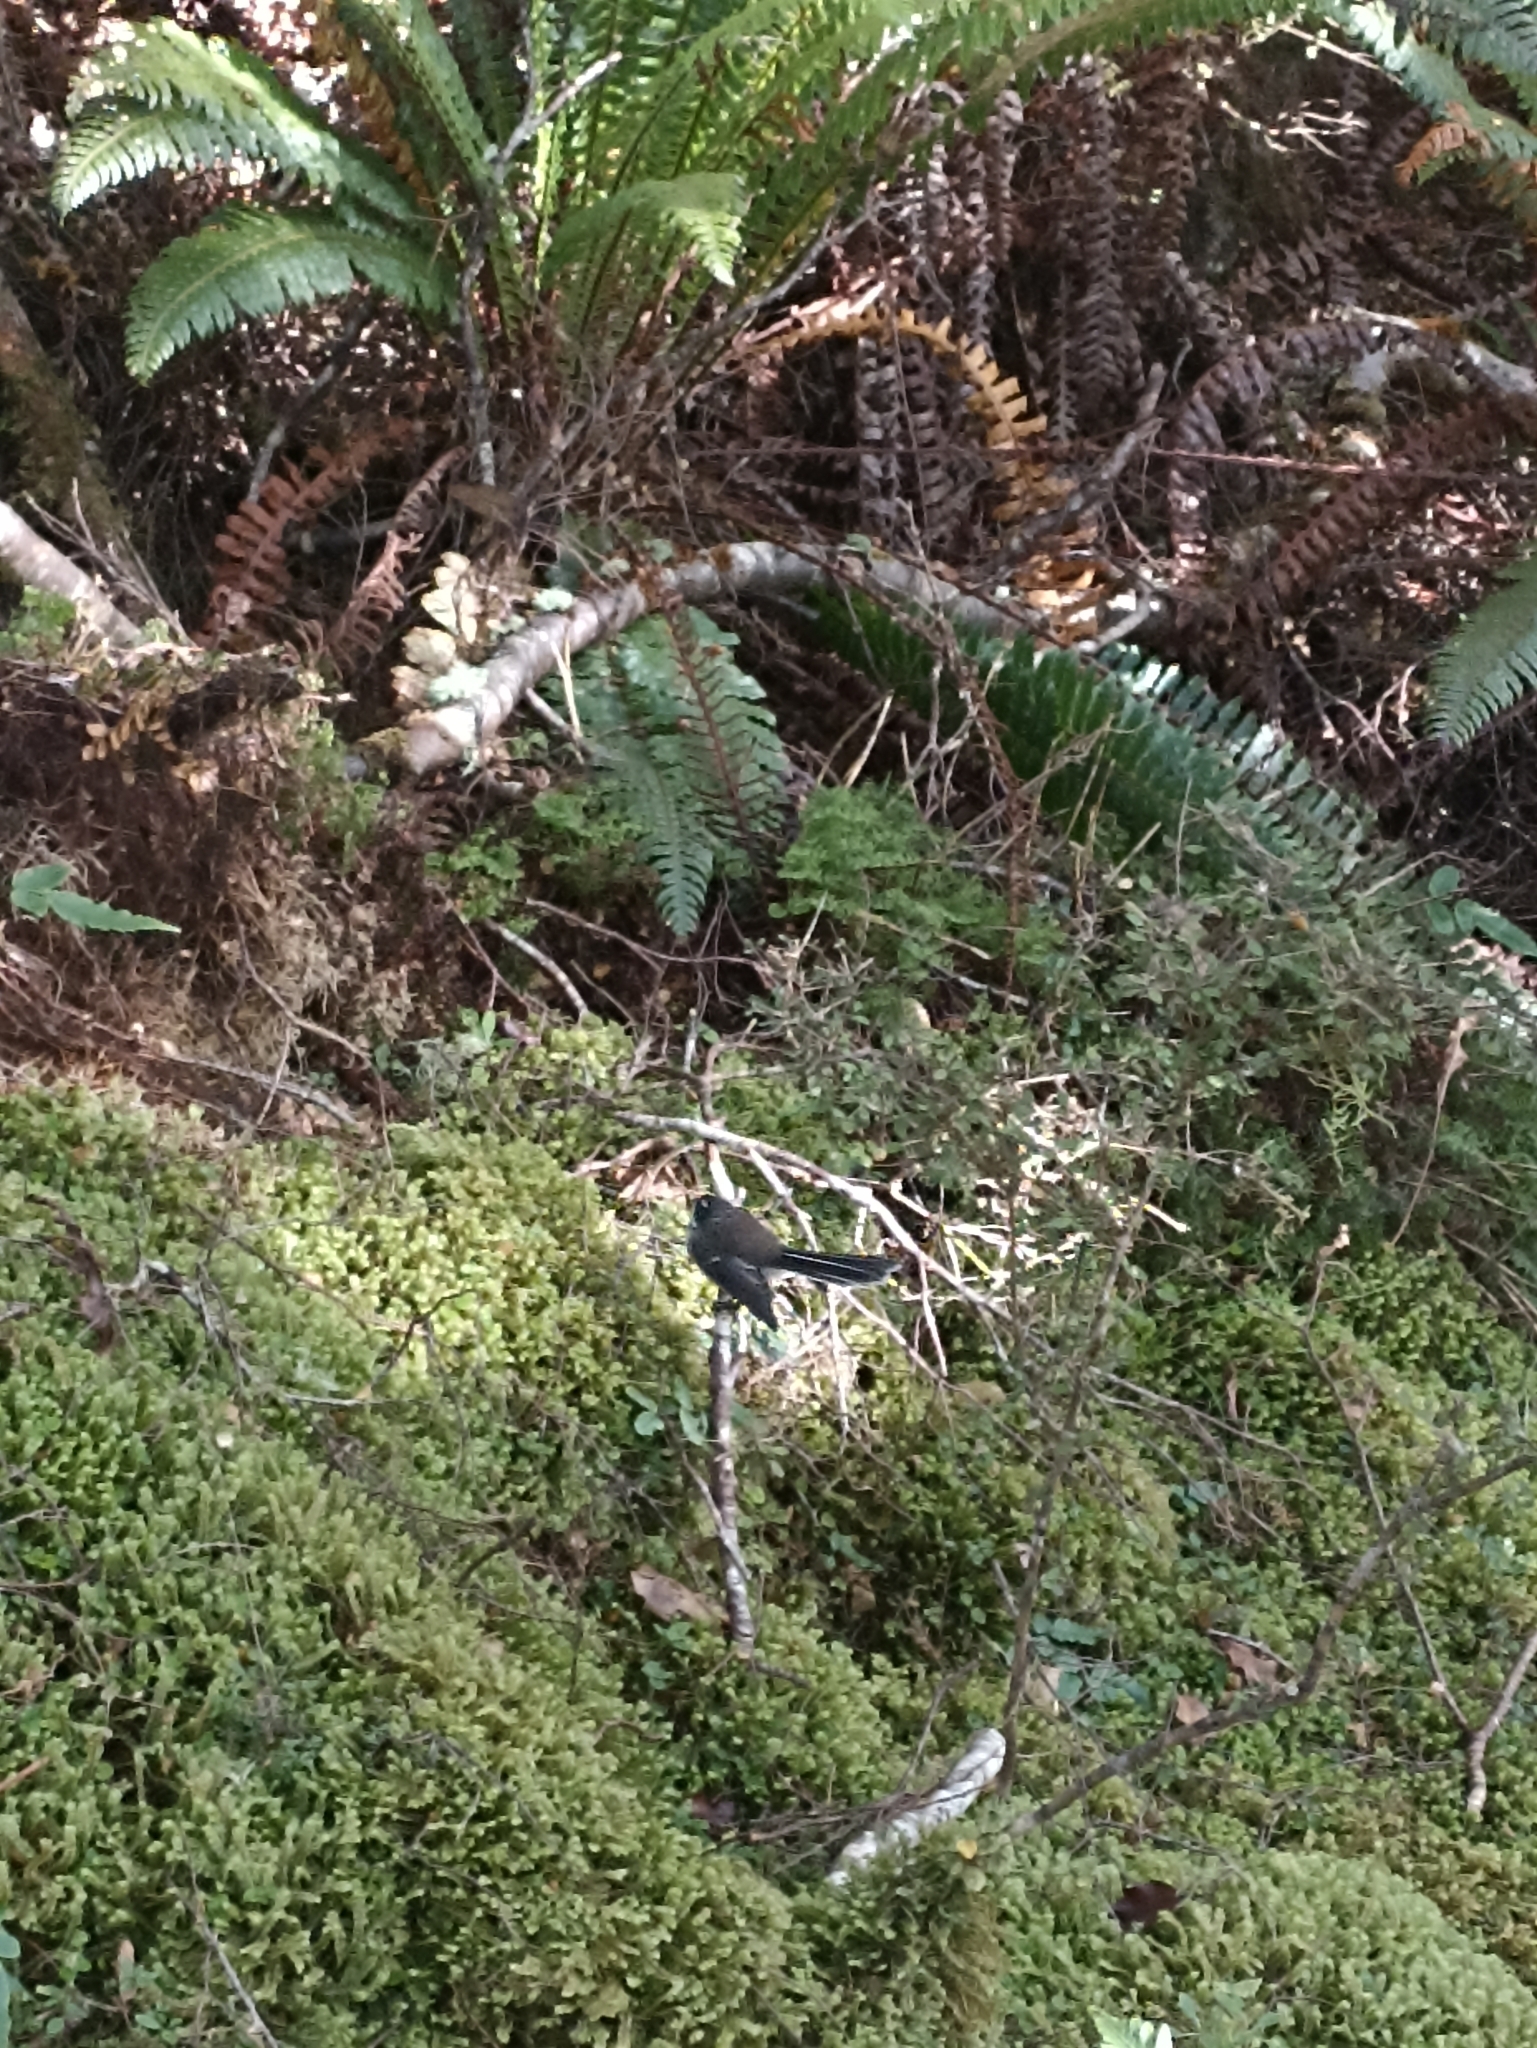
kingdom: Animalia
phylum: Chordata
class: Aves
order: Passeriformes
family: Rhipiduridae
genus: Rhipidura
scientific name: Rhipidura fuliginosa
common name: New zealand fantail
